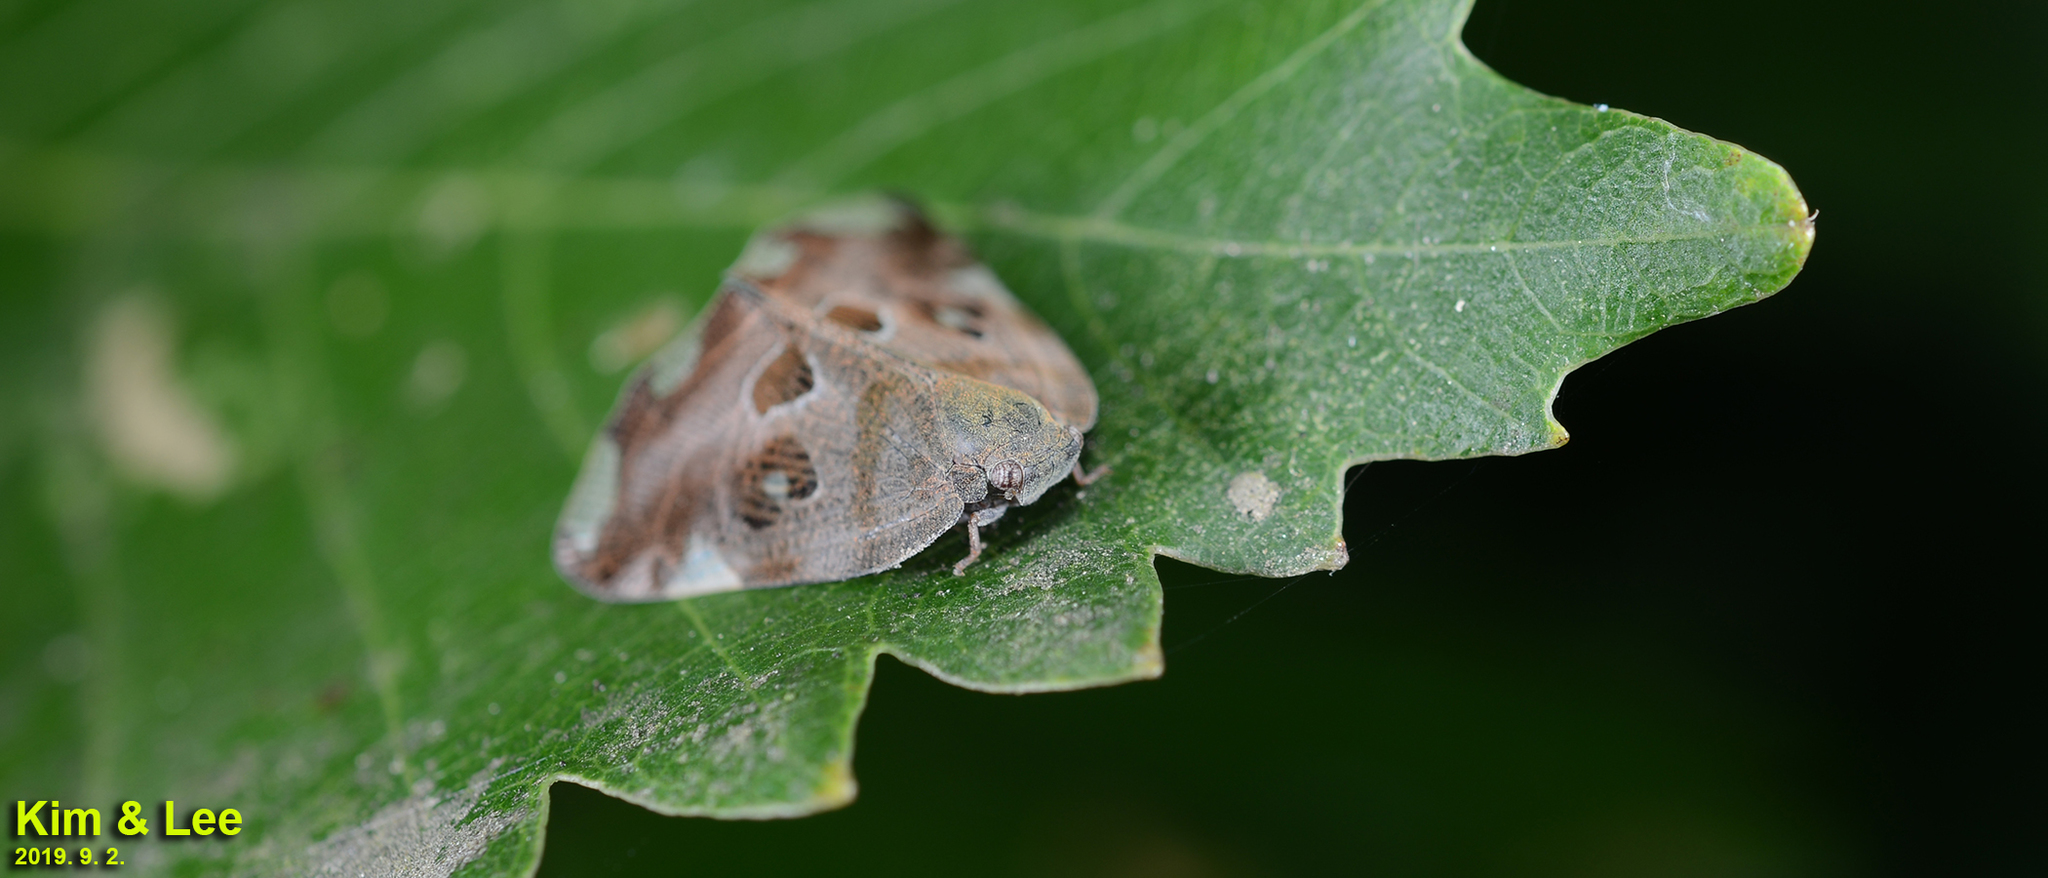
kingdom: Animalia
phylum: Arthropoda
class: Insecta
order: Hemiptera
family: Ricaniidae
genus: Ricania
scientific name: Ricania speculum
